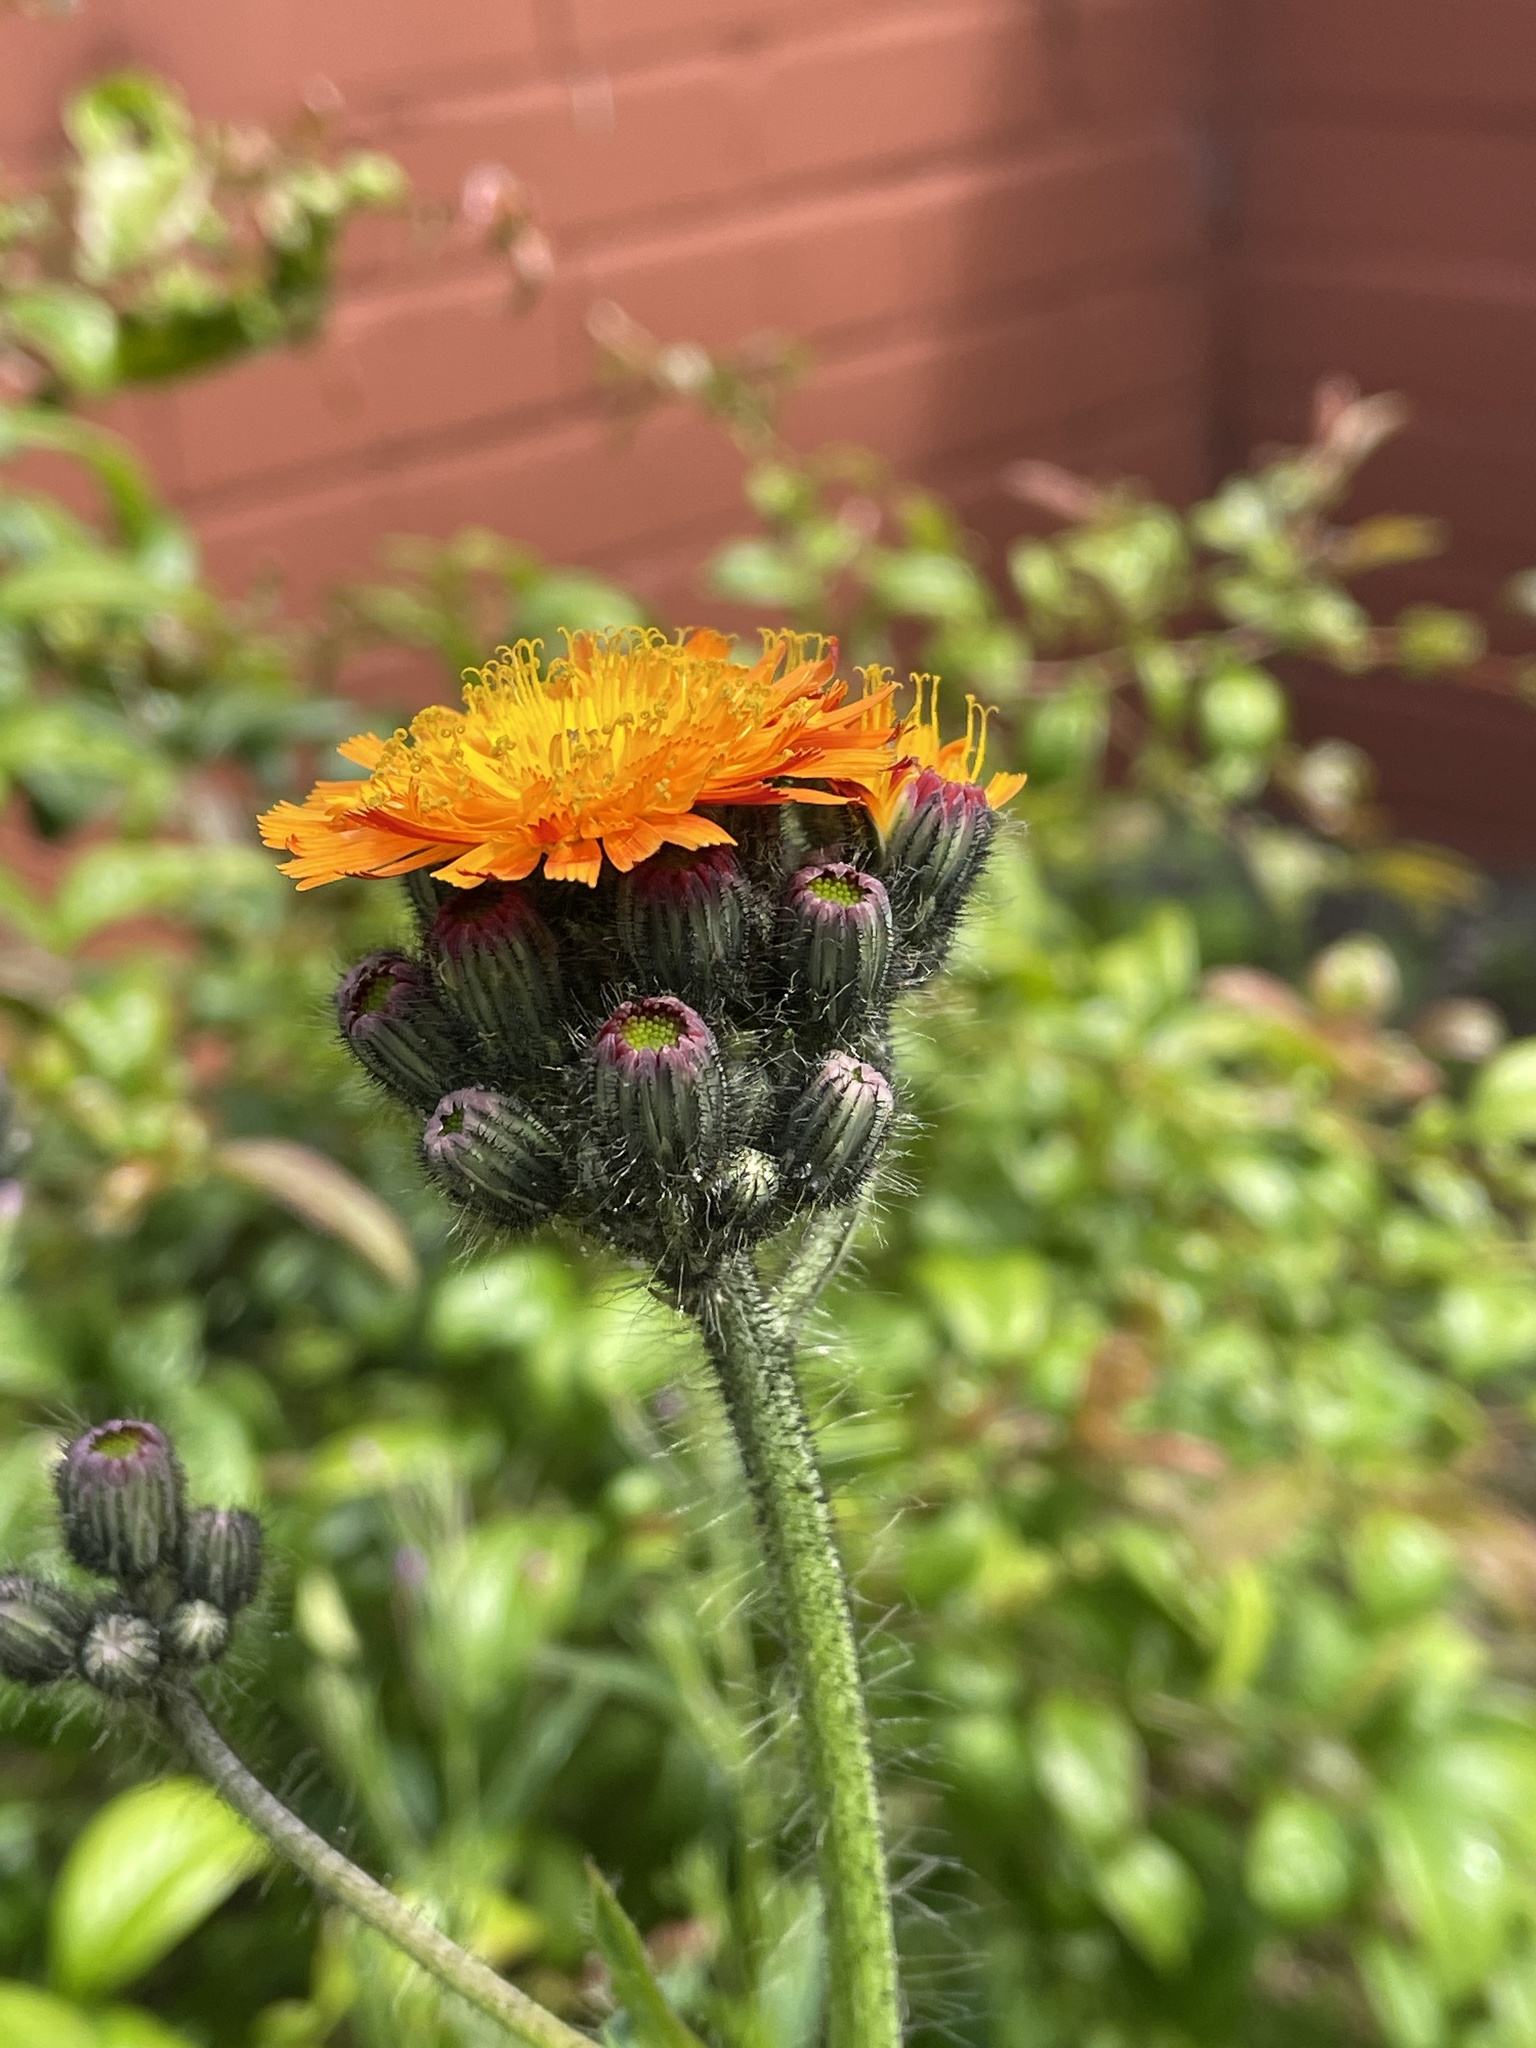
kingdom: Plantae
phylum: Tracheophyta
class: Magnoliopsida
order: Asterales
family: Asteraceae
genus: Pilosella
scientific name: Pilosella aurantiaca
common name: Fox-and-cubs
